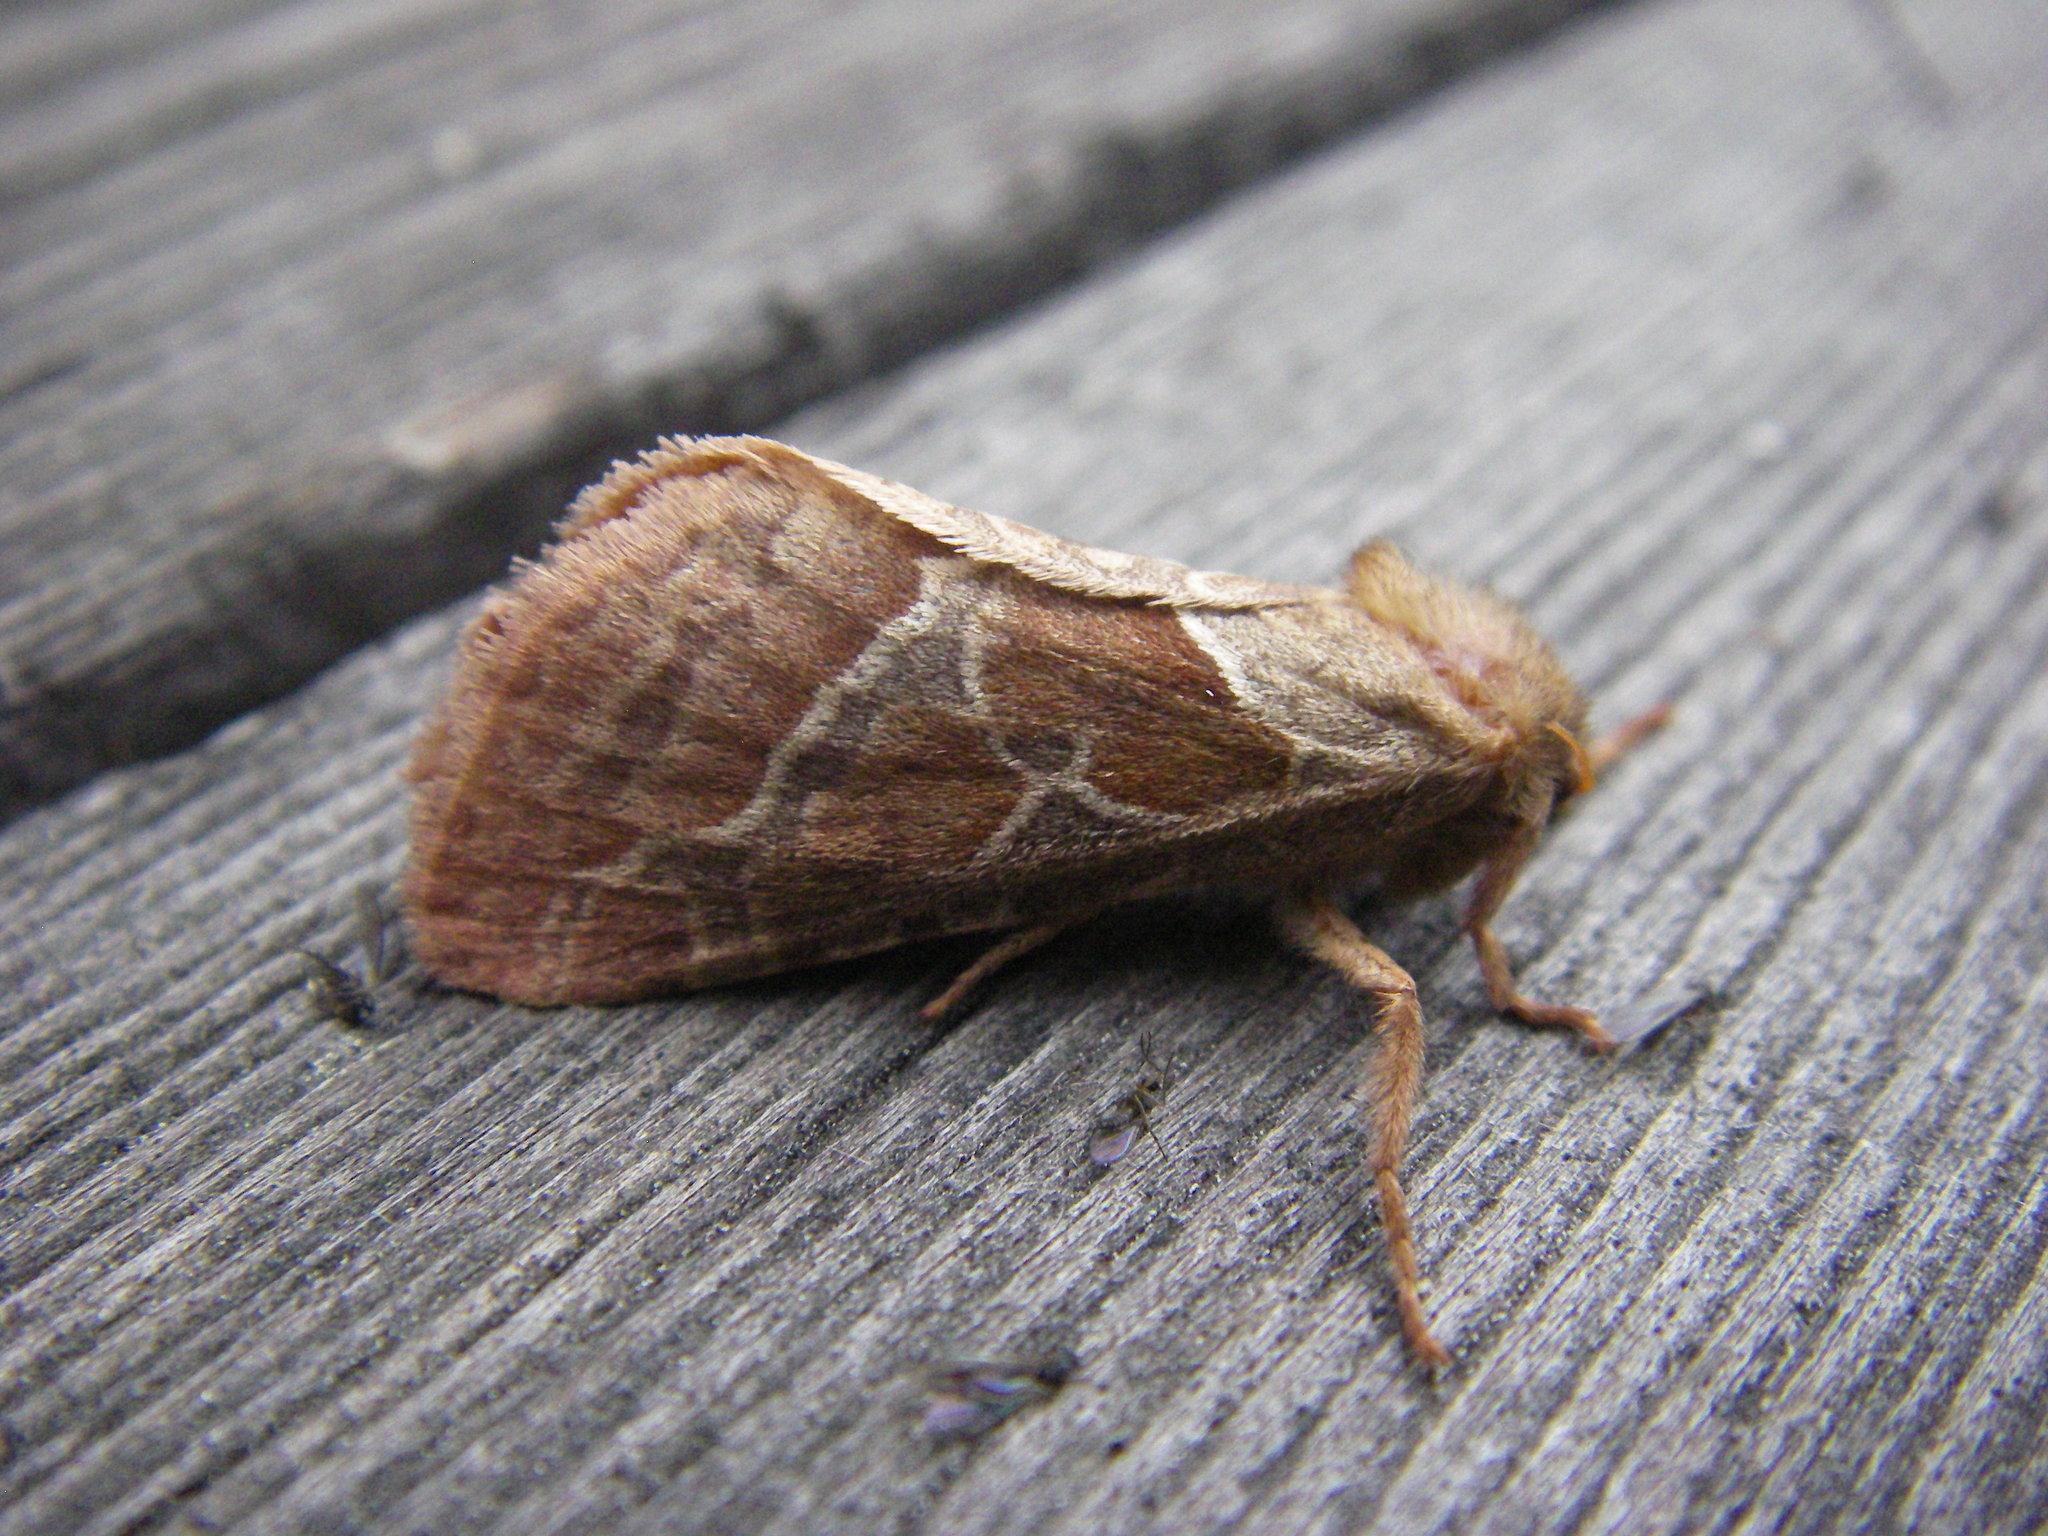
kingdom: Animalia
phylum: Arthropoda
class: Insecta
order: Lepidoptera
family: Hepialidae
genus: Triodia
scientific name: Triodia sylvina
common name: Orange swift
